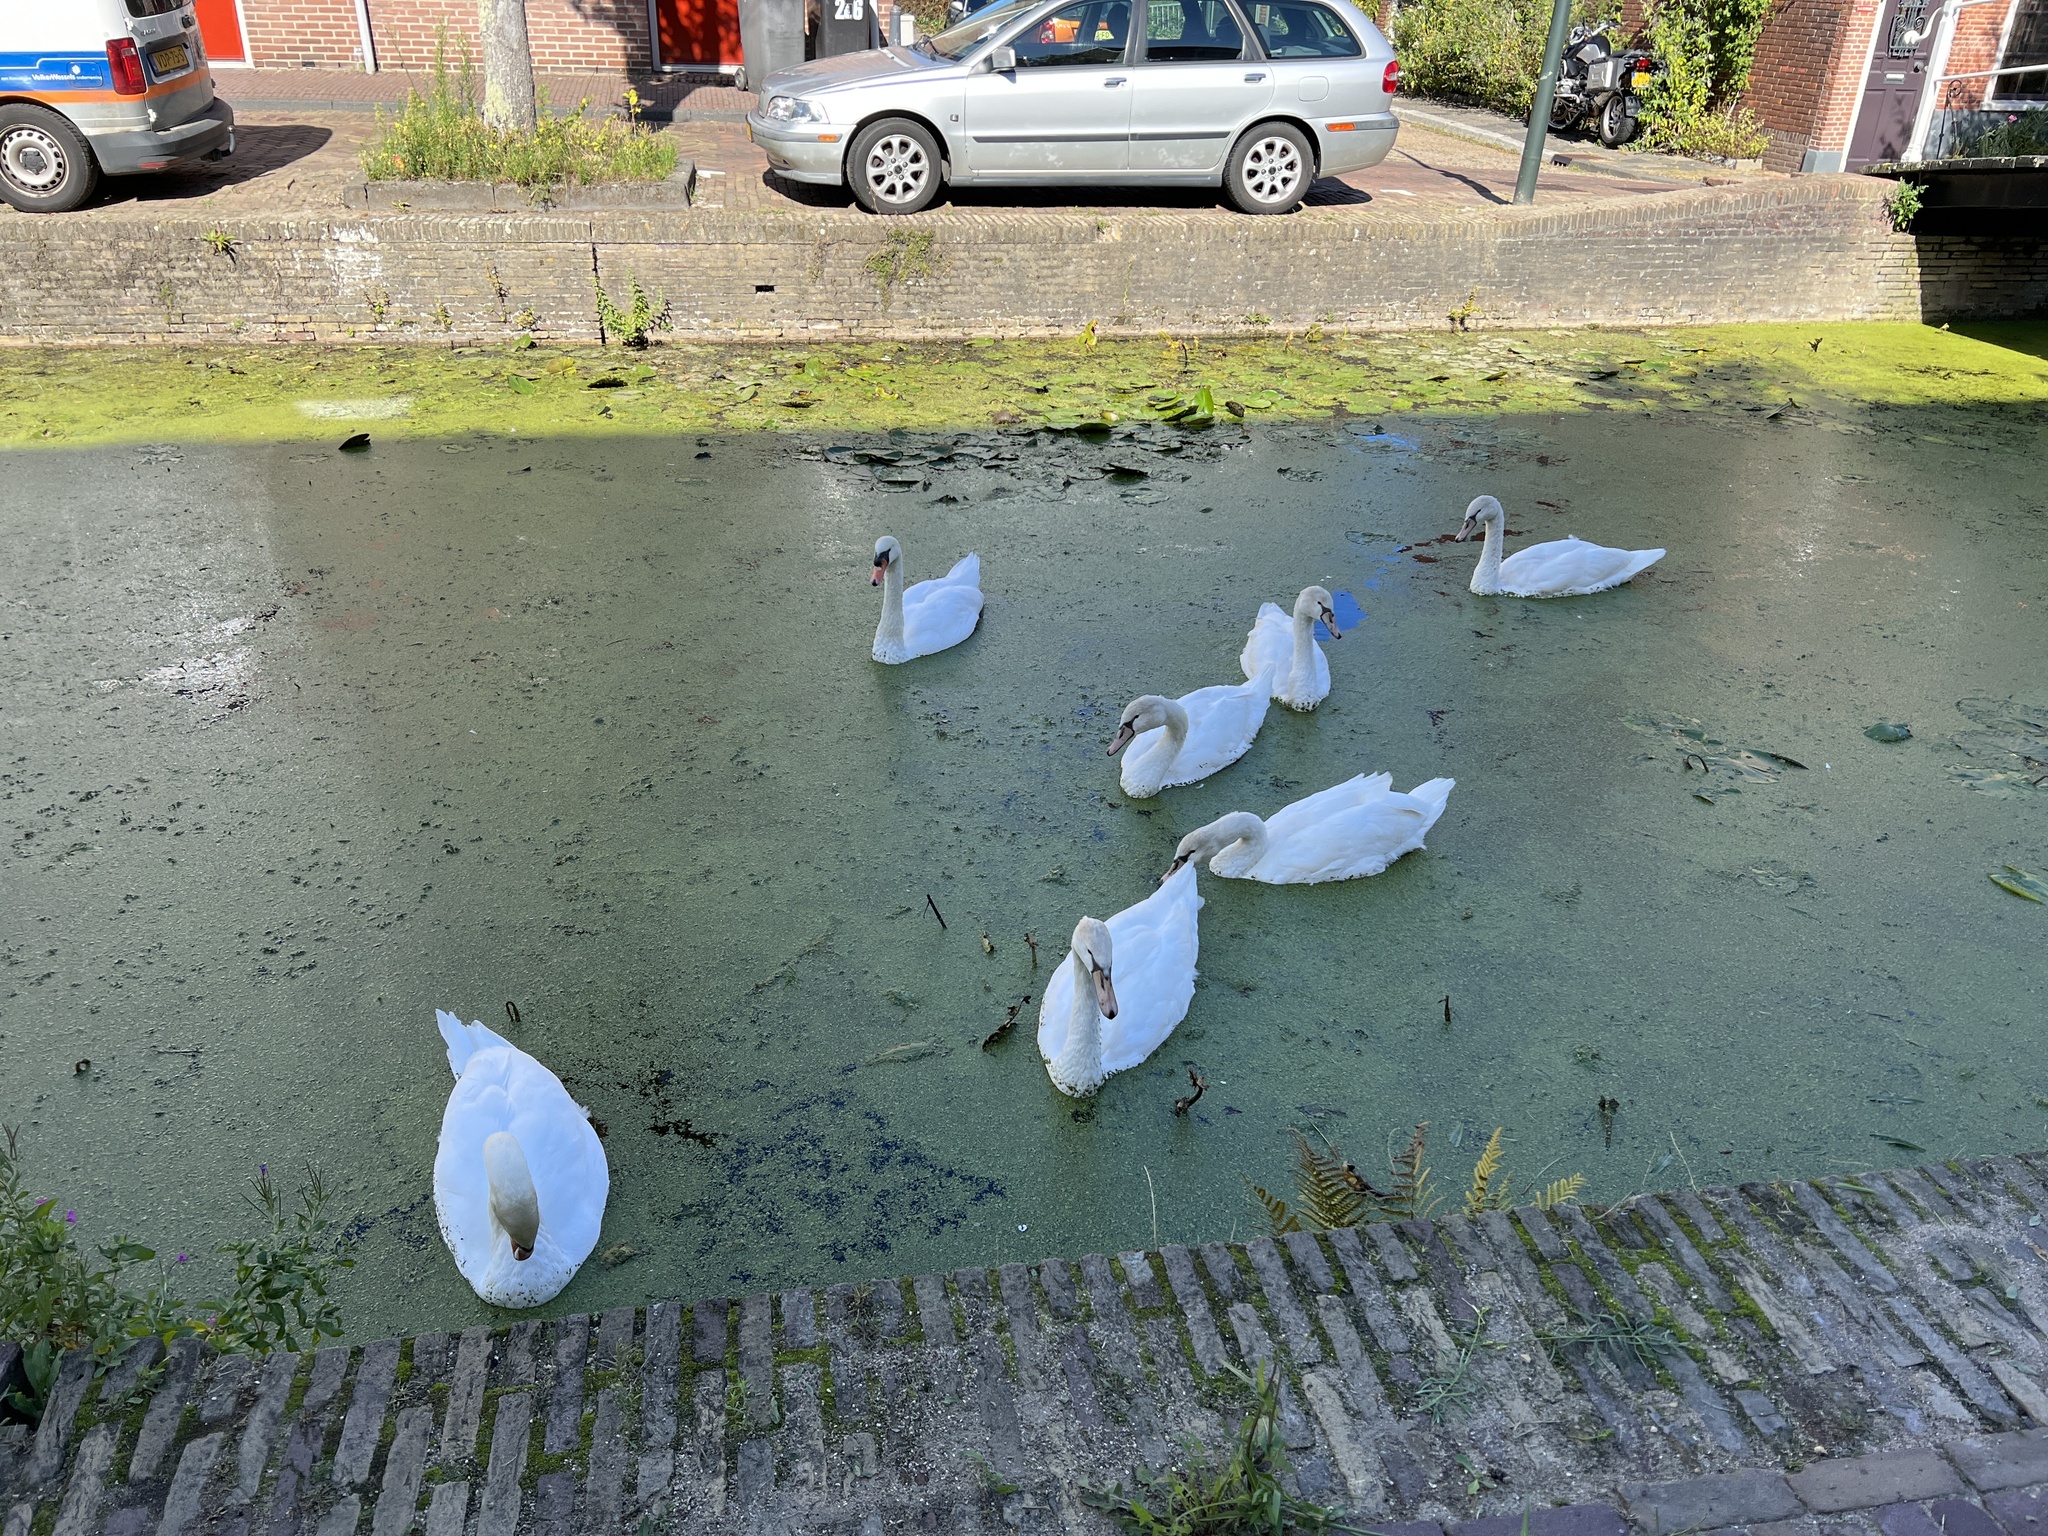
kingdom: Animalia
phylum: Chordata
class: Aves
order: Anseriformes
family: Anatidae
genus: Cygnus
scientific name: Cygnus olor
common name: Mute swan
